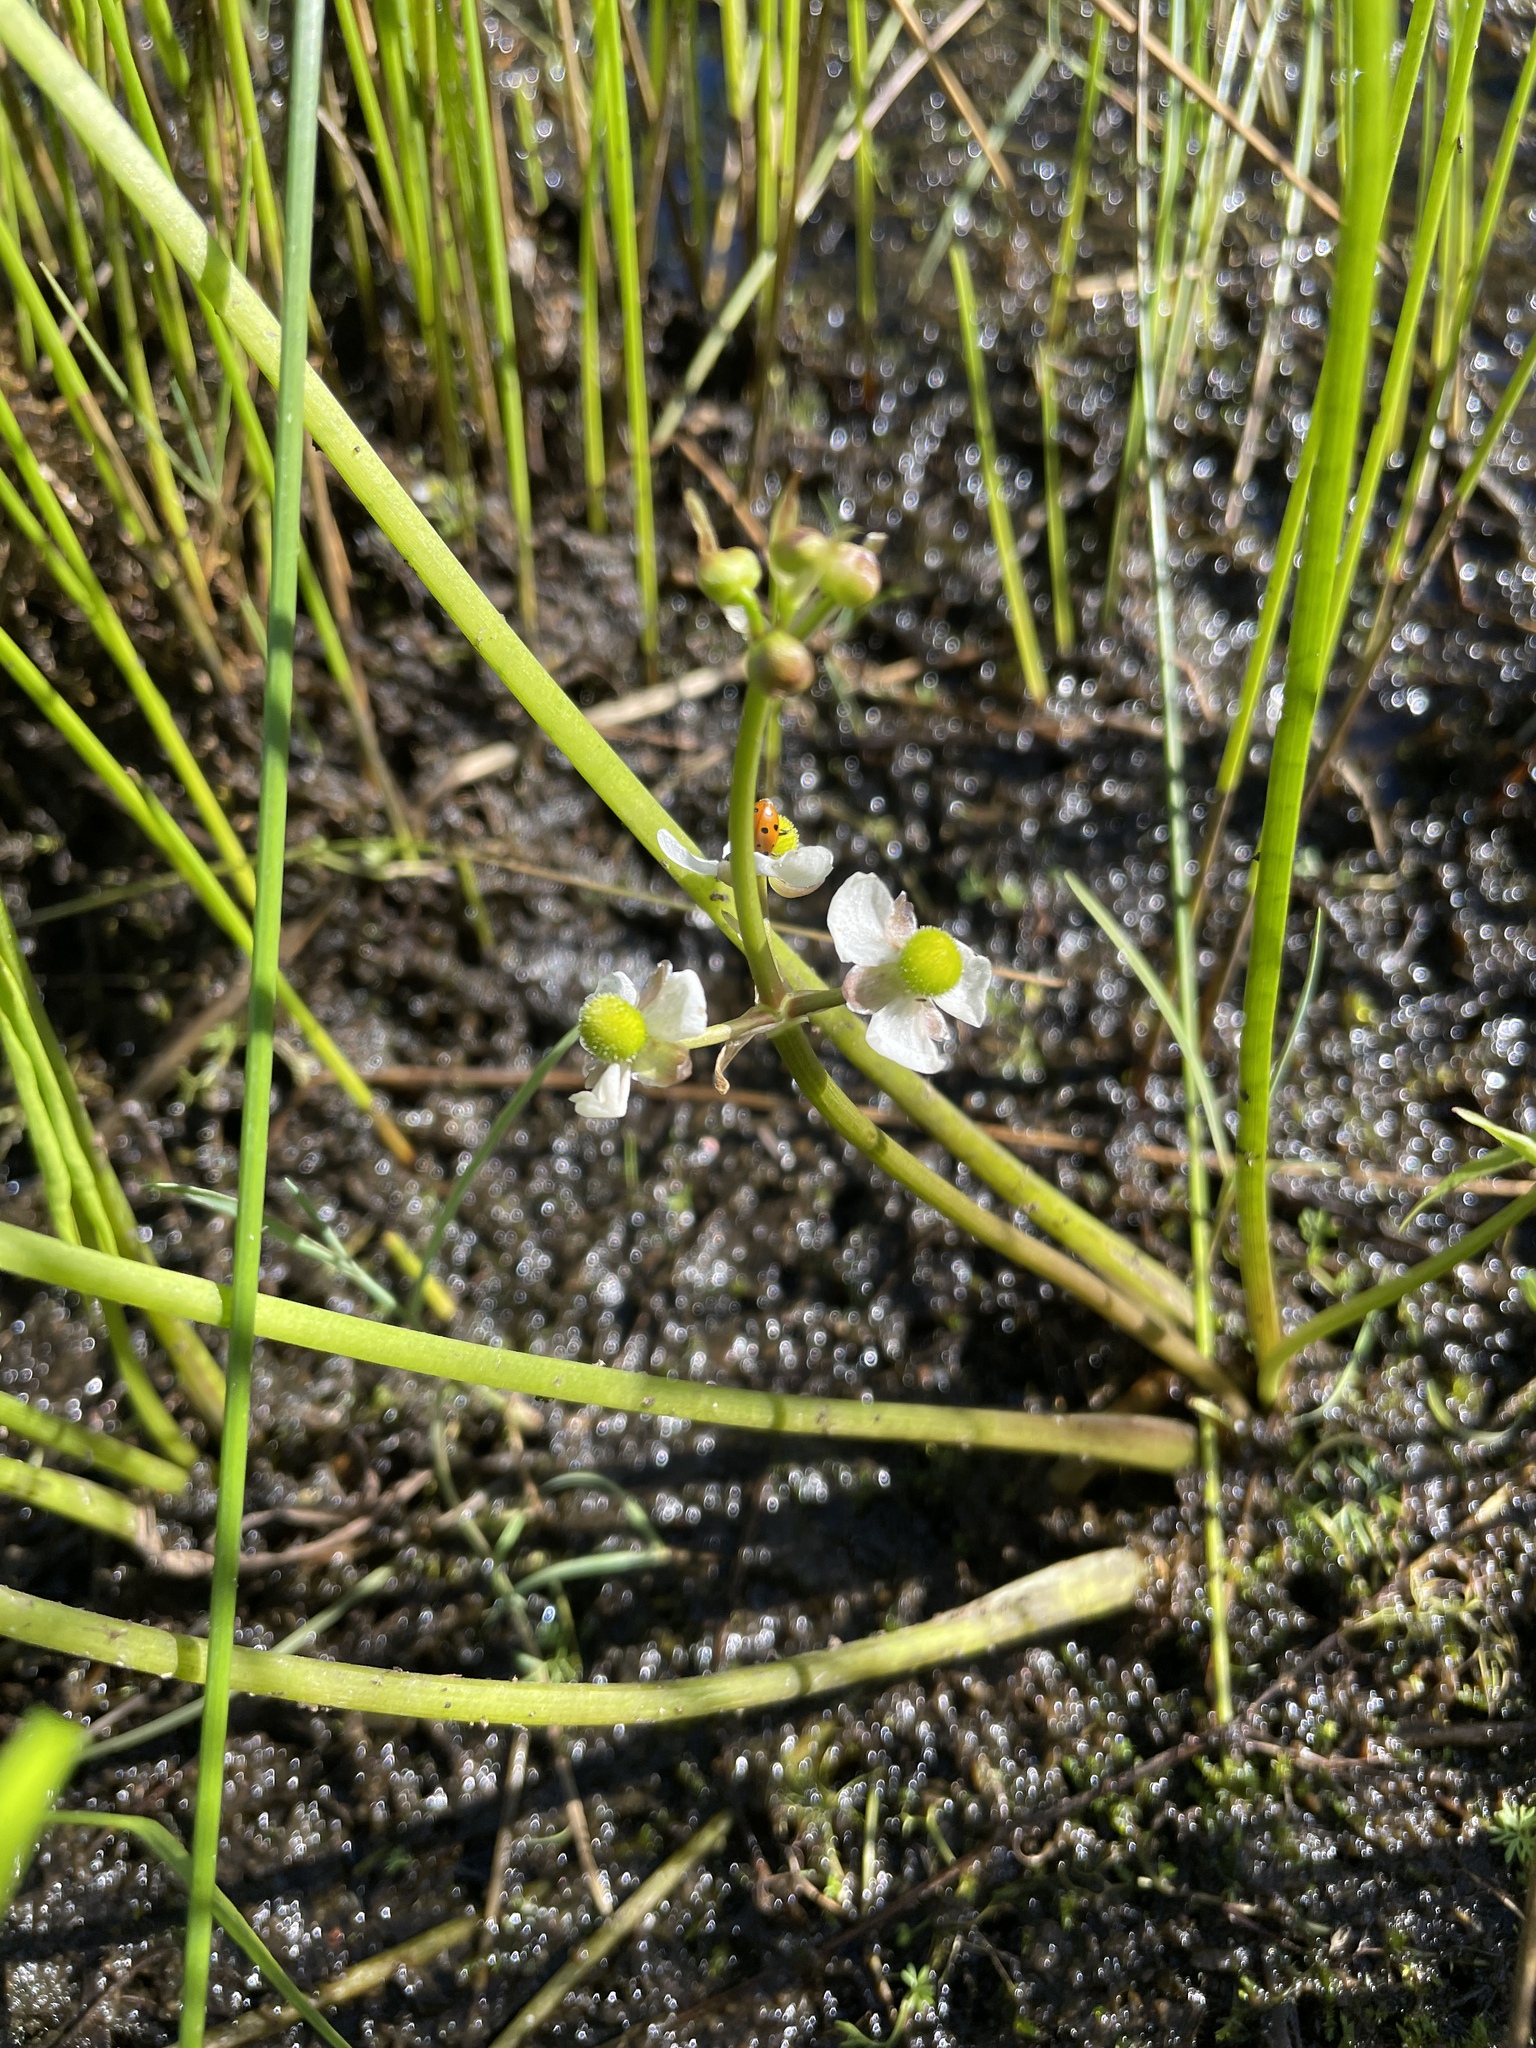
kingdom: Plantae
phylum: Tracheophyta
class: Liliopsida
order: Alismatales
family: Alismataceae
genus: Sagittaria
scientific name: Sagittaria cuneata
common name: Northern arrowhead
